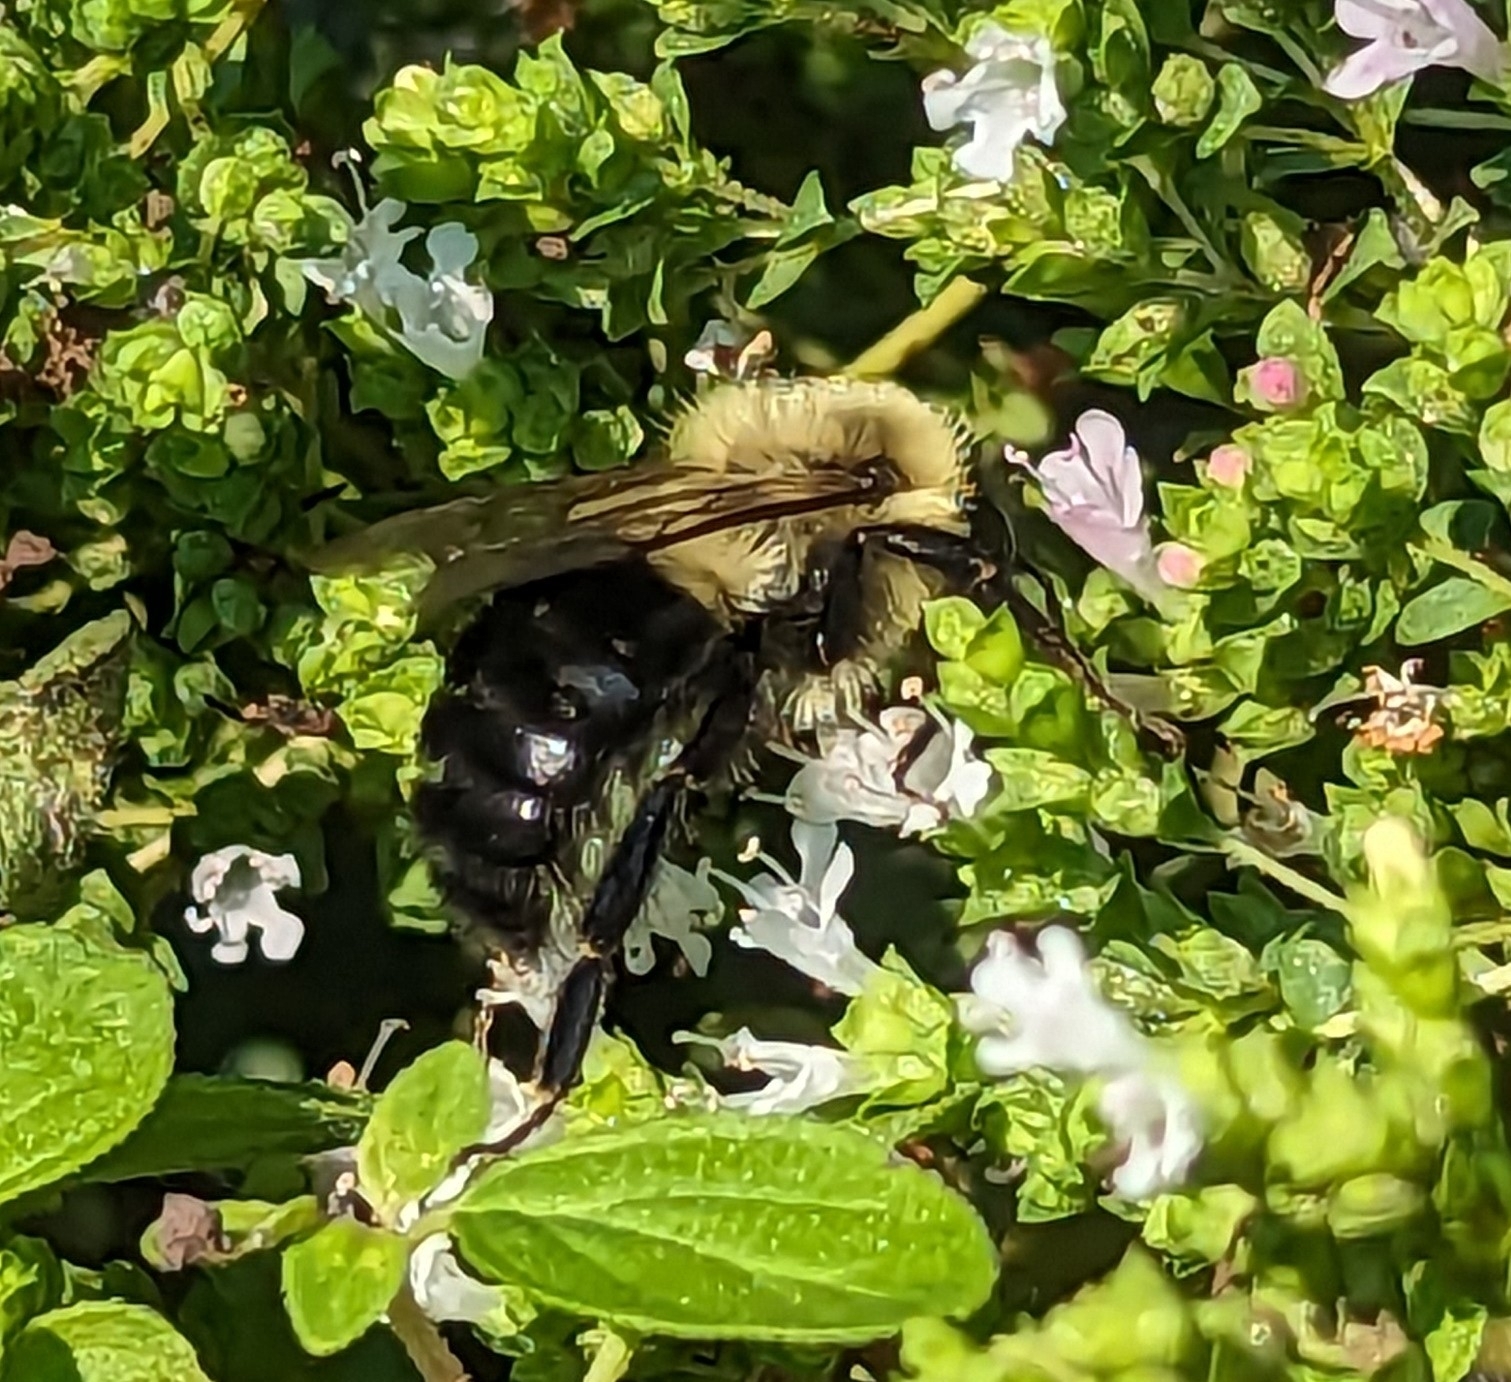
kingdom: Animalia
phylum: Arthropoda
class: Insecta
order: Hymenoptera
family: Apidae
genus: Bombus
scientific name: Bombus impatiens
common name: Common eastern bumble bee
